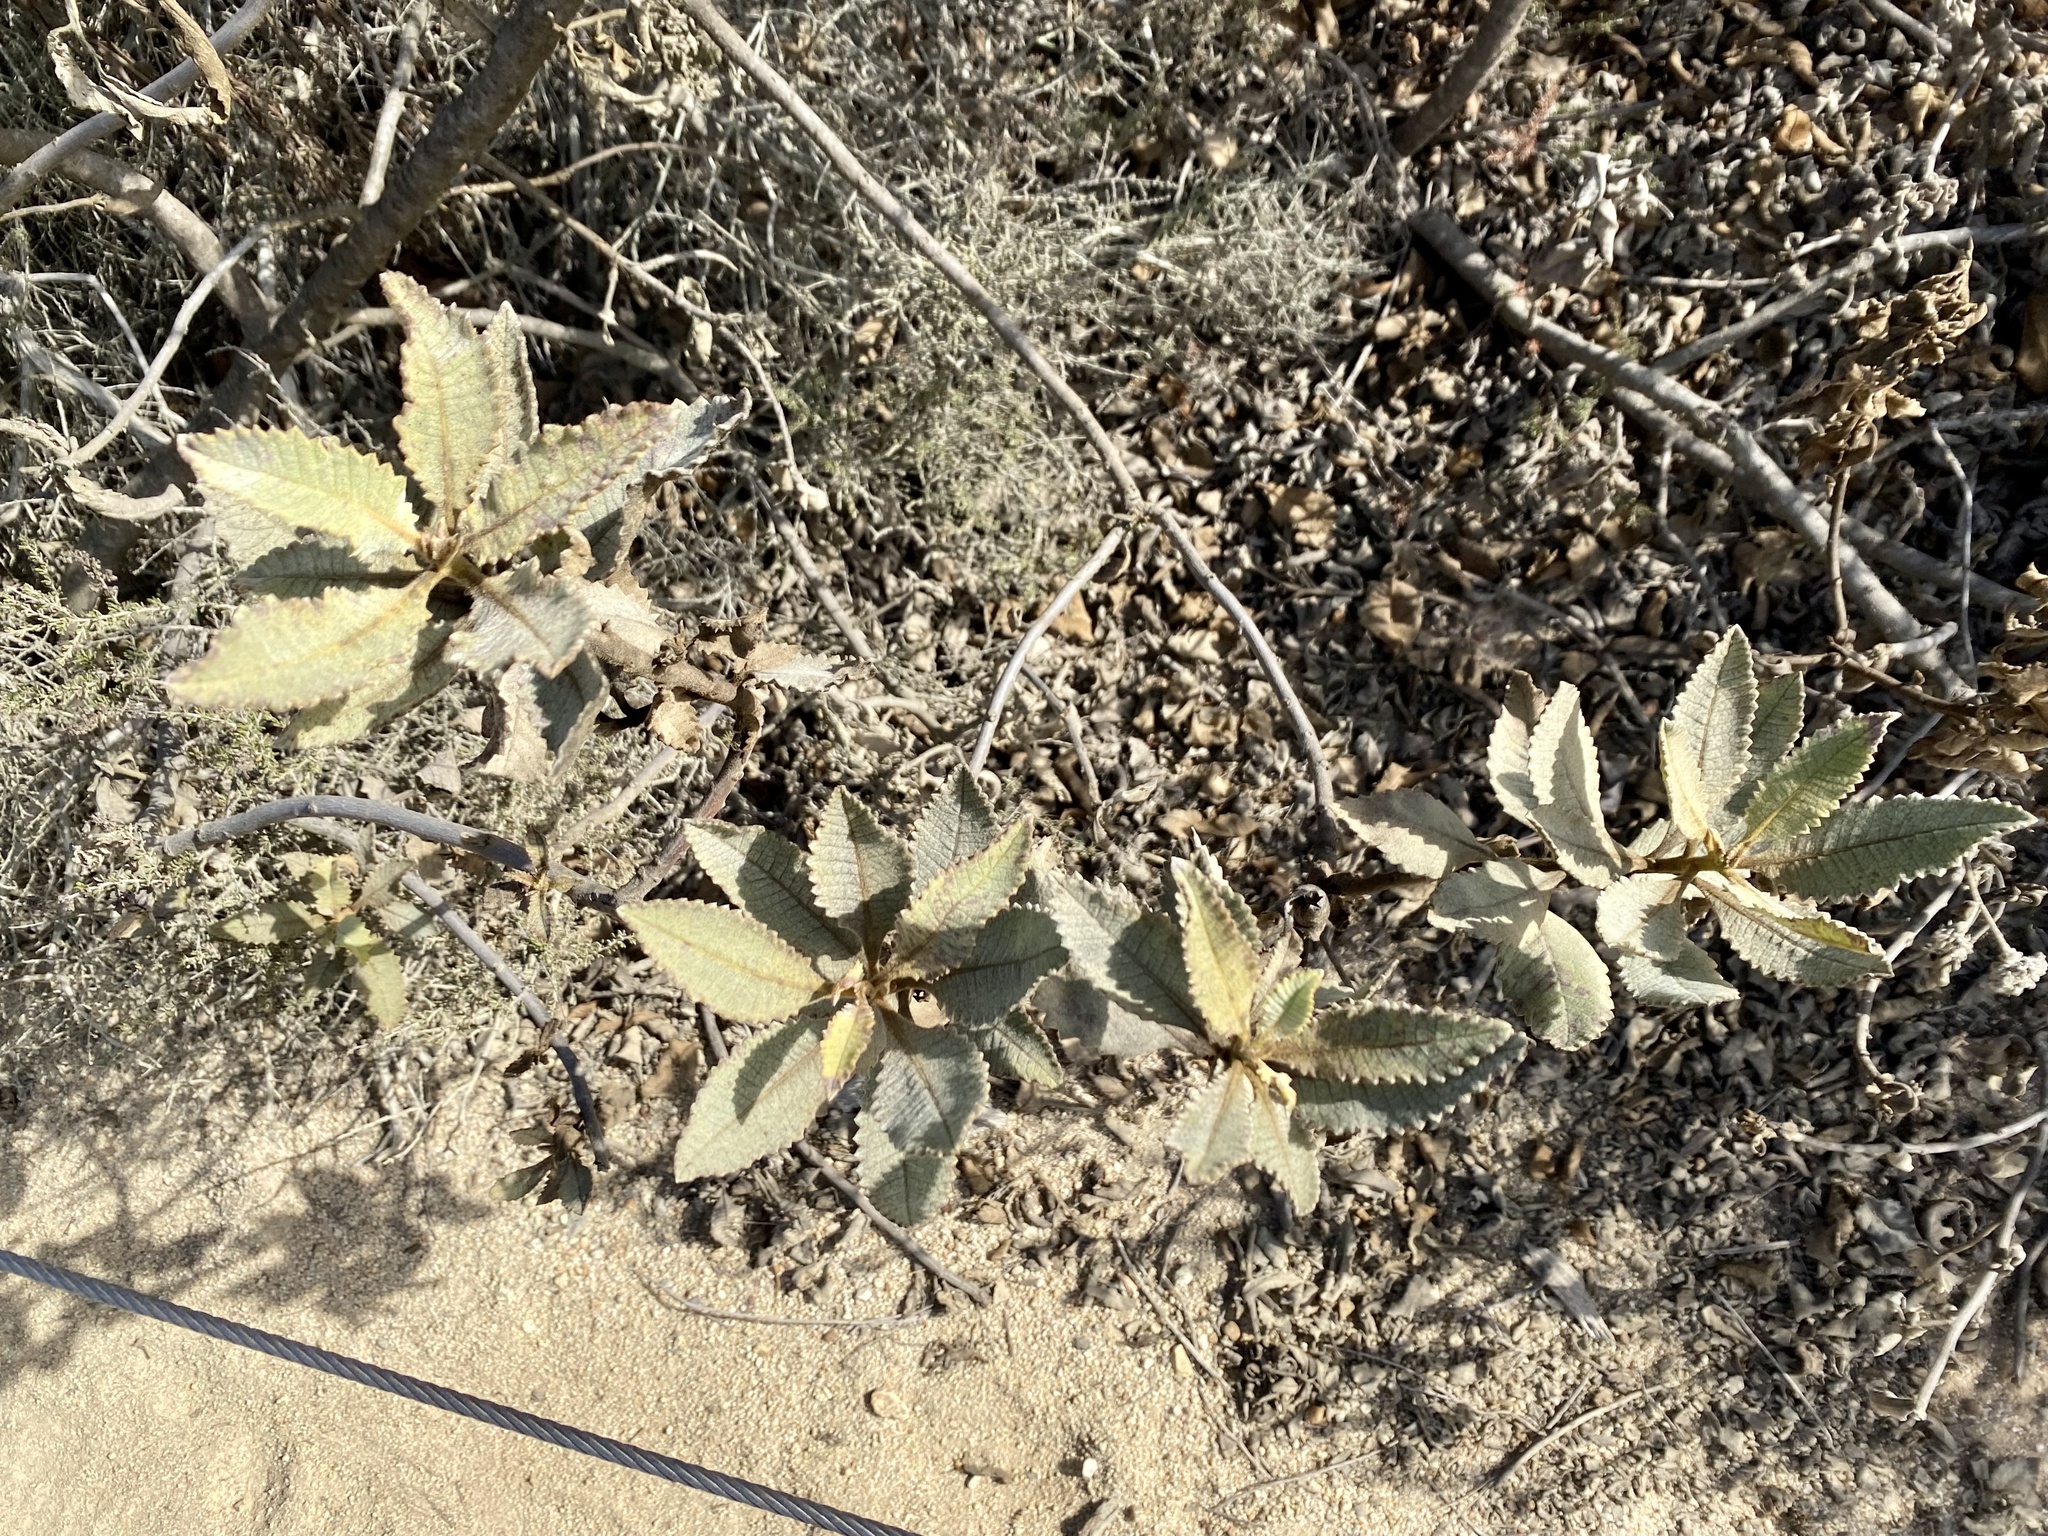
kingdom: Plantae
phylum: Tracheophyta
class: Magnoliopsida
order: Boraginales
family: Namaceae
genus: Eriodictyon
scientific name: Eriodictyon crassifolium
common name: Thick-leaf yerba-santa
